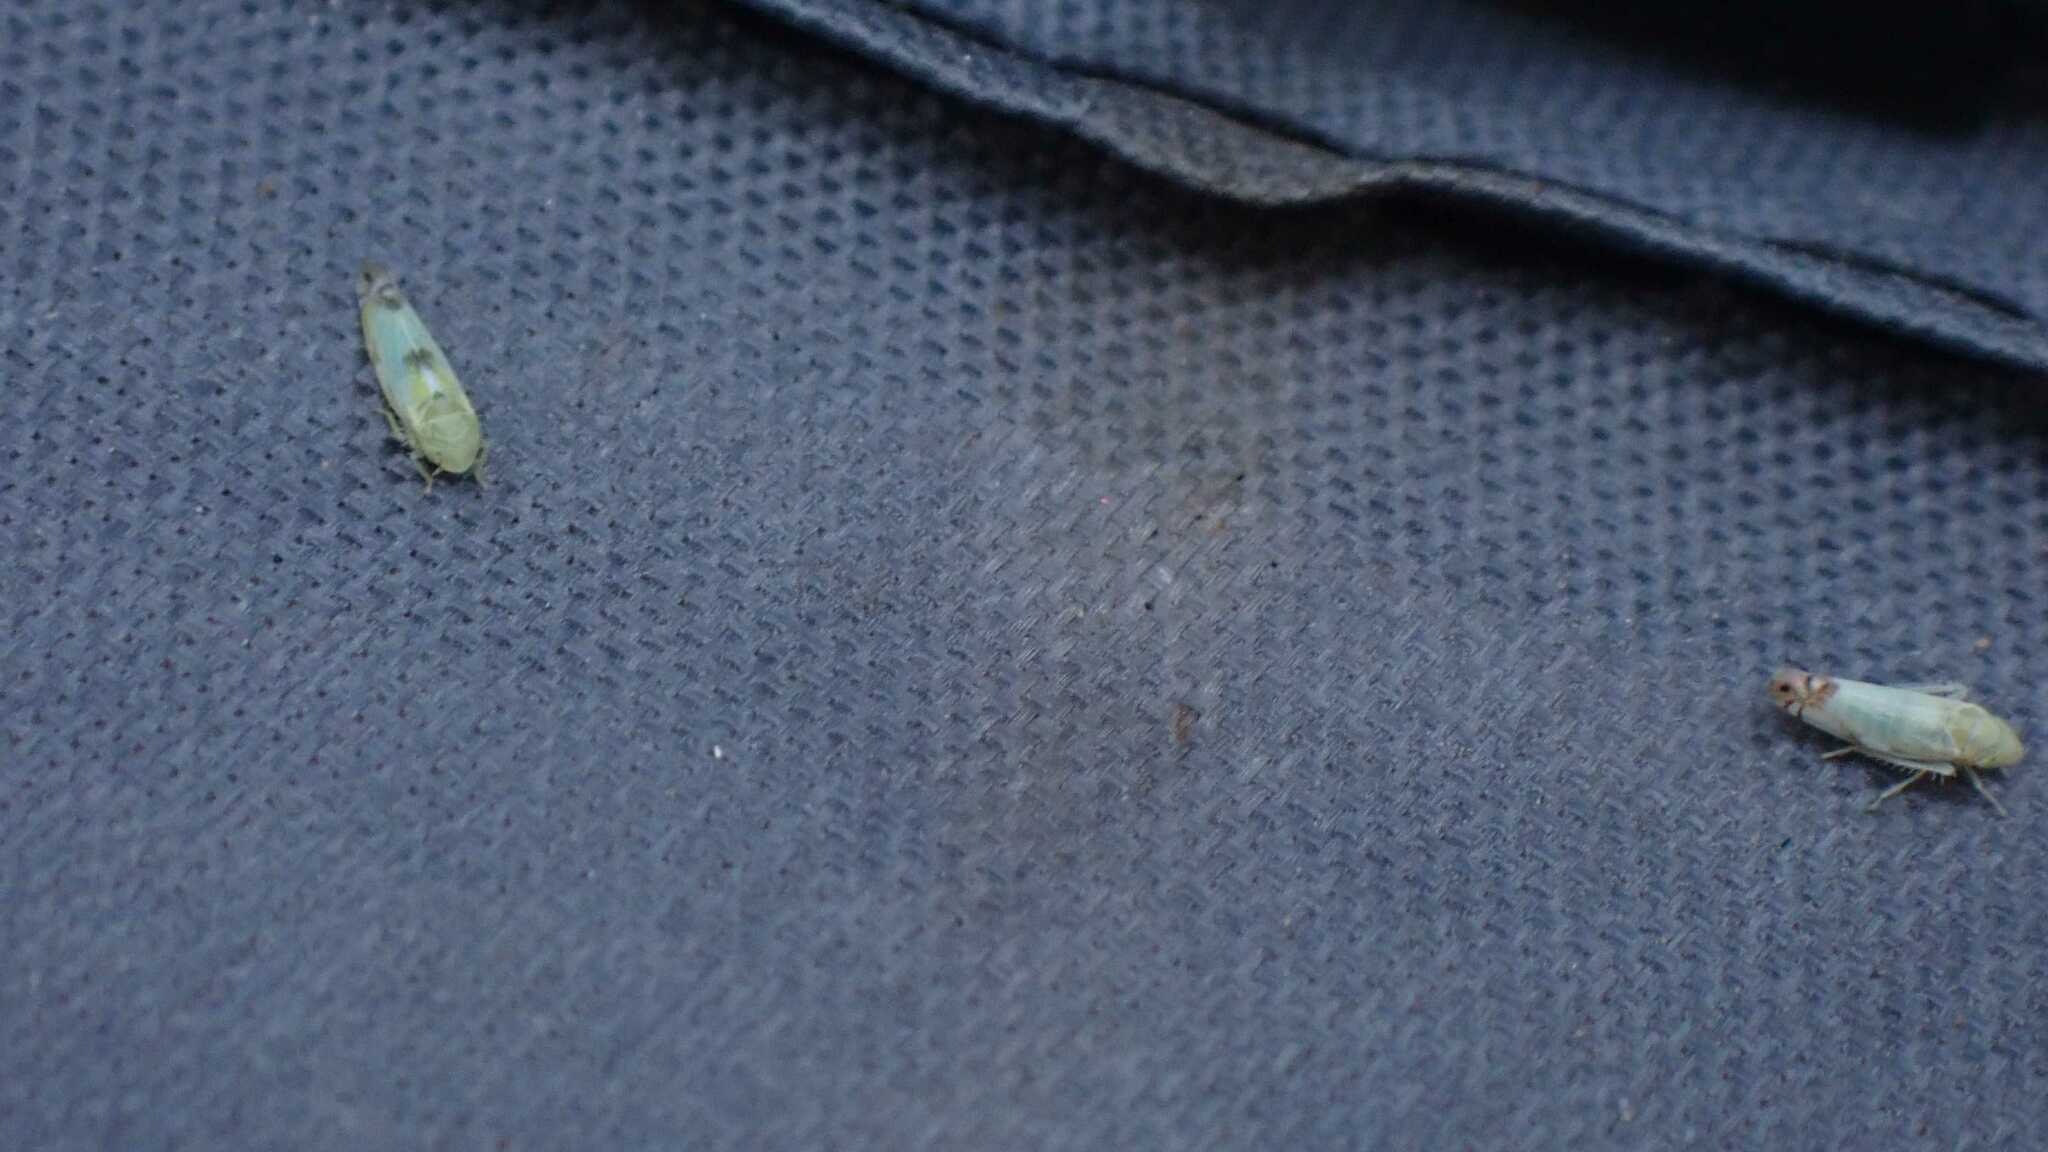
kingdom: Animalia
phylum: Arthropoda
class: Insecta
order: Hemiptera
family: Cicadellidae
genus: Zyginella
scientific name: Zyginella pulchra
